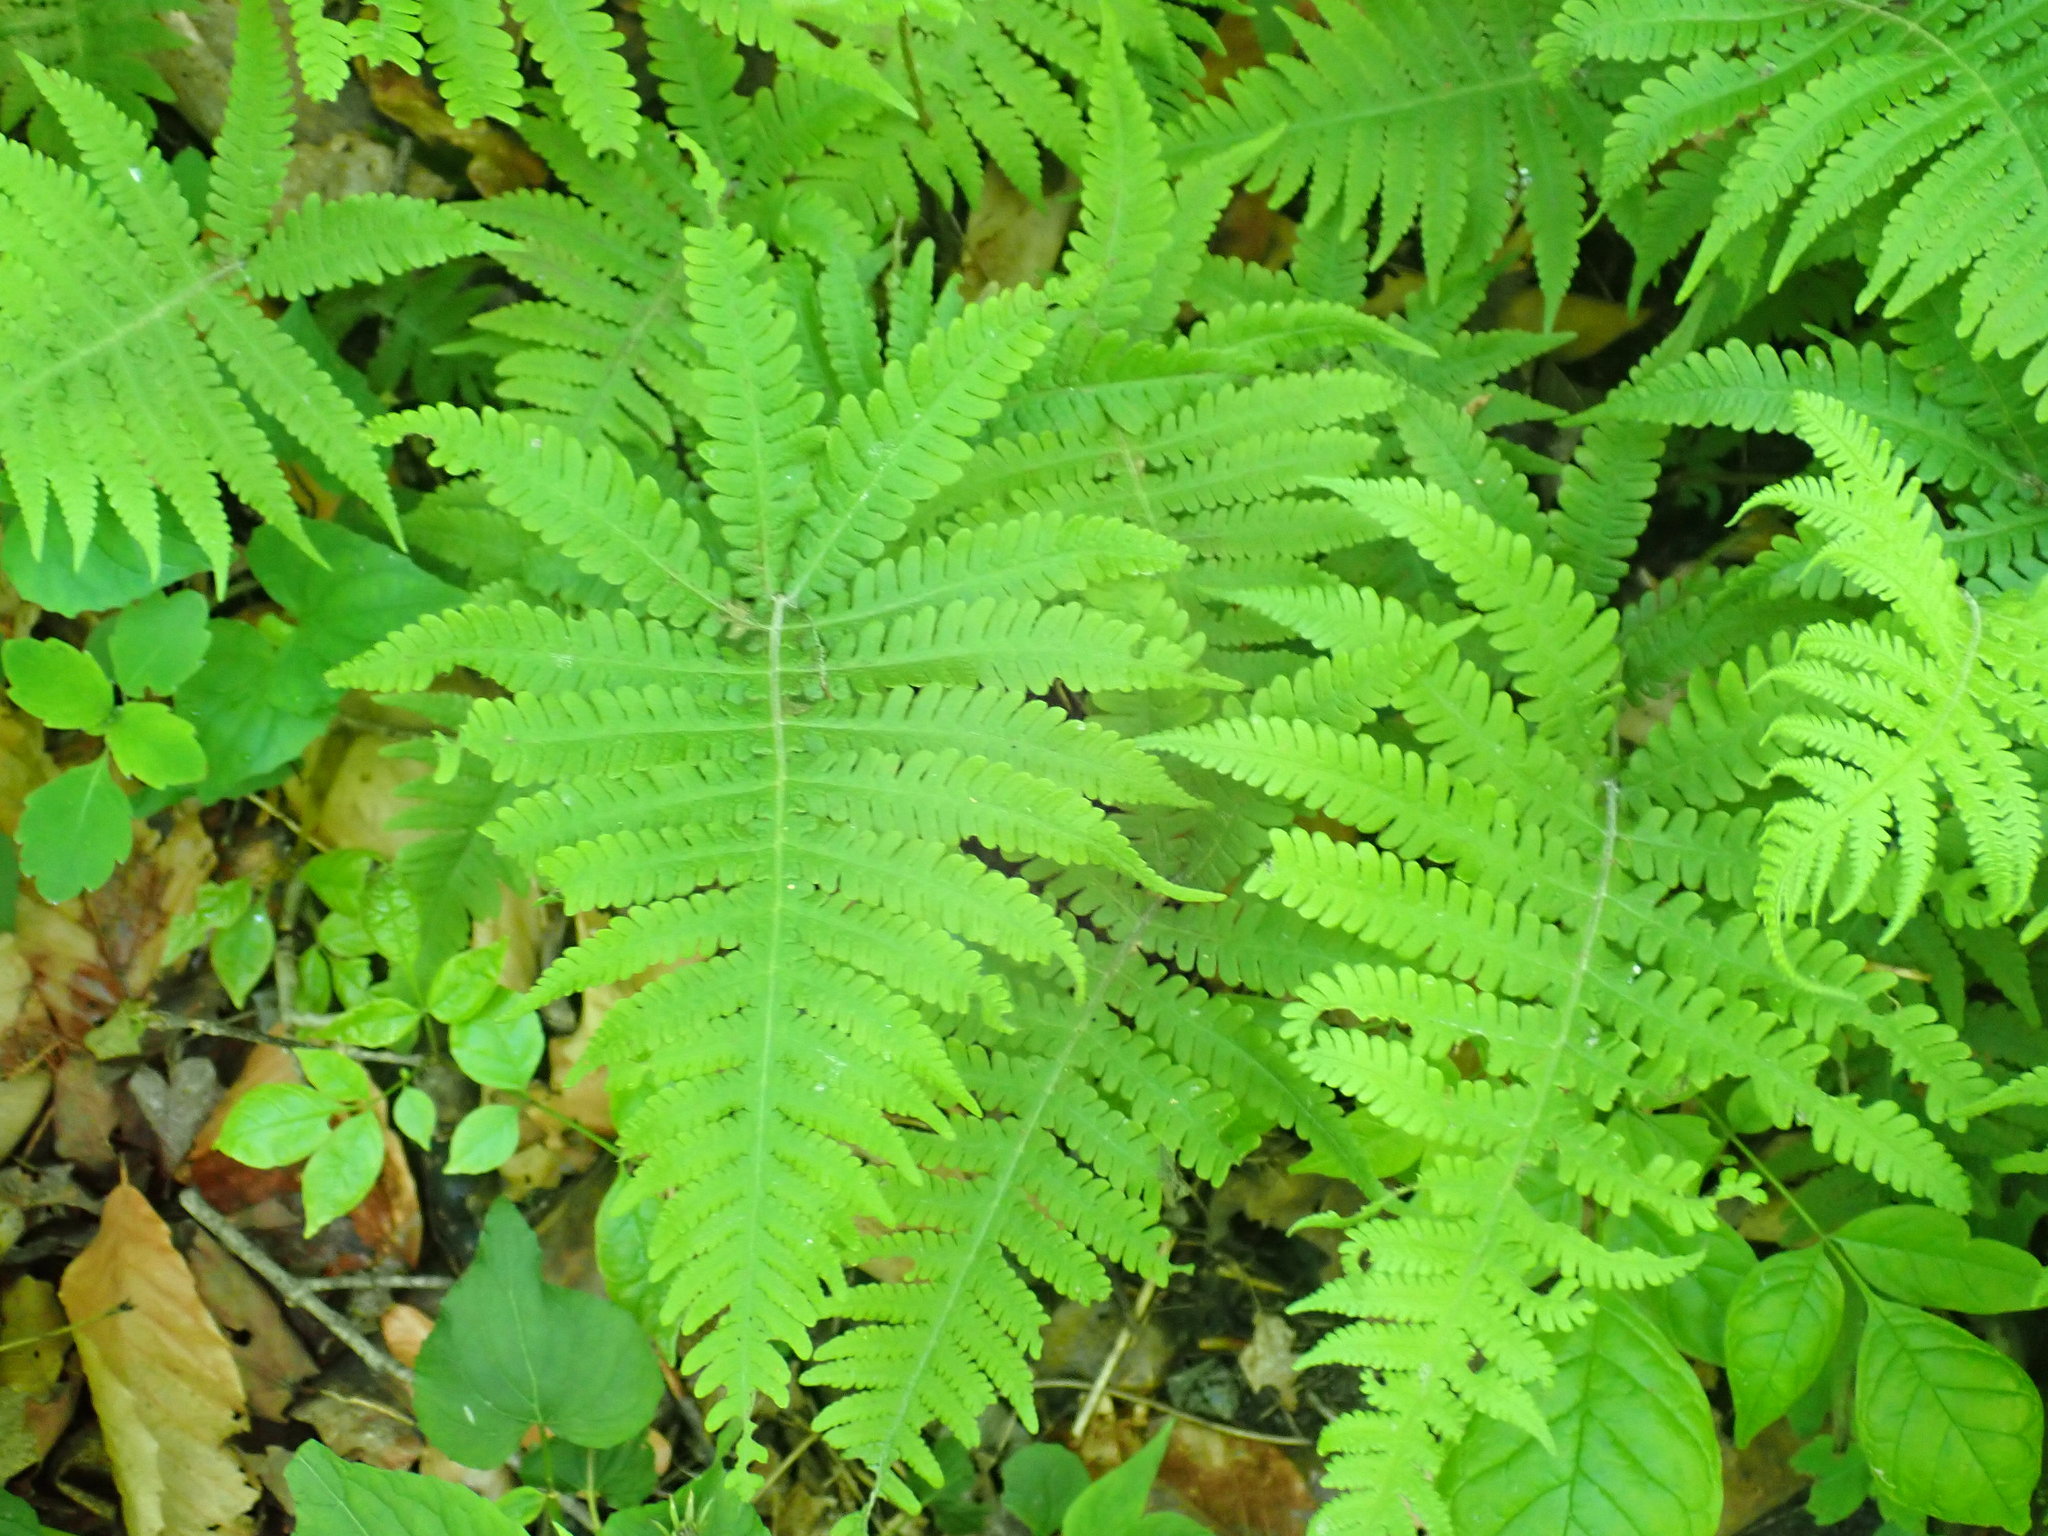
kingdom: Plantae
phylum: Tracheophyta
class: Polypodiopsida
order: Polypodiales
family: Thelypteridaceae
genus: Phegopteris
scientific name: Phegopteris connectilis
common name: Beech fern
